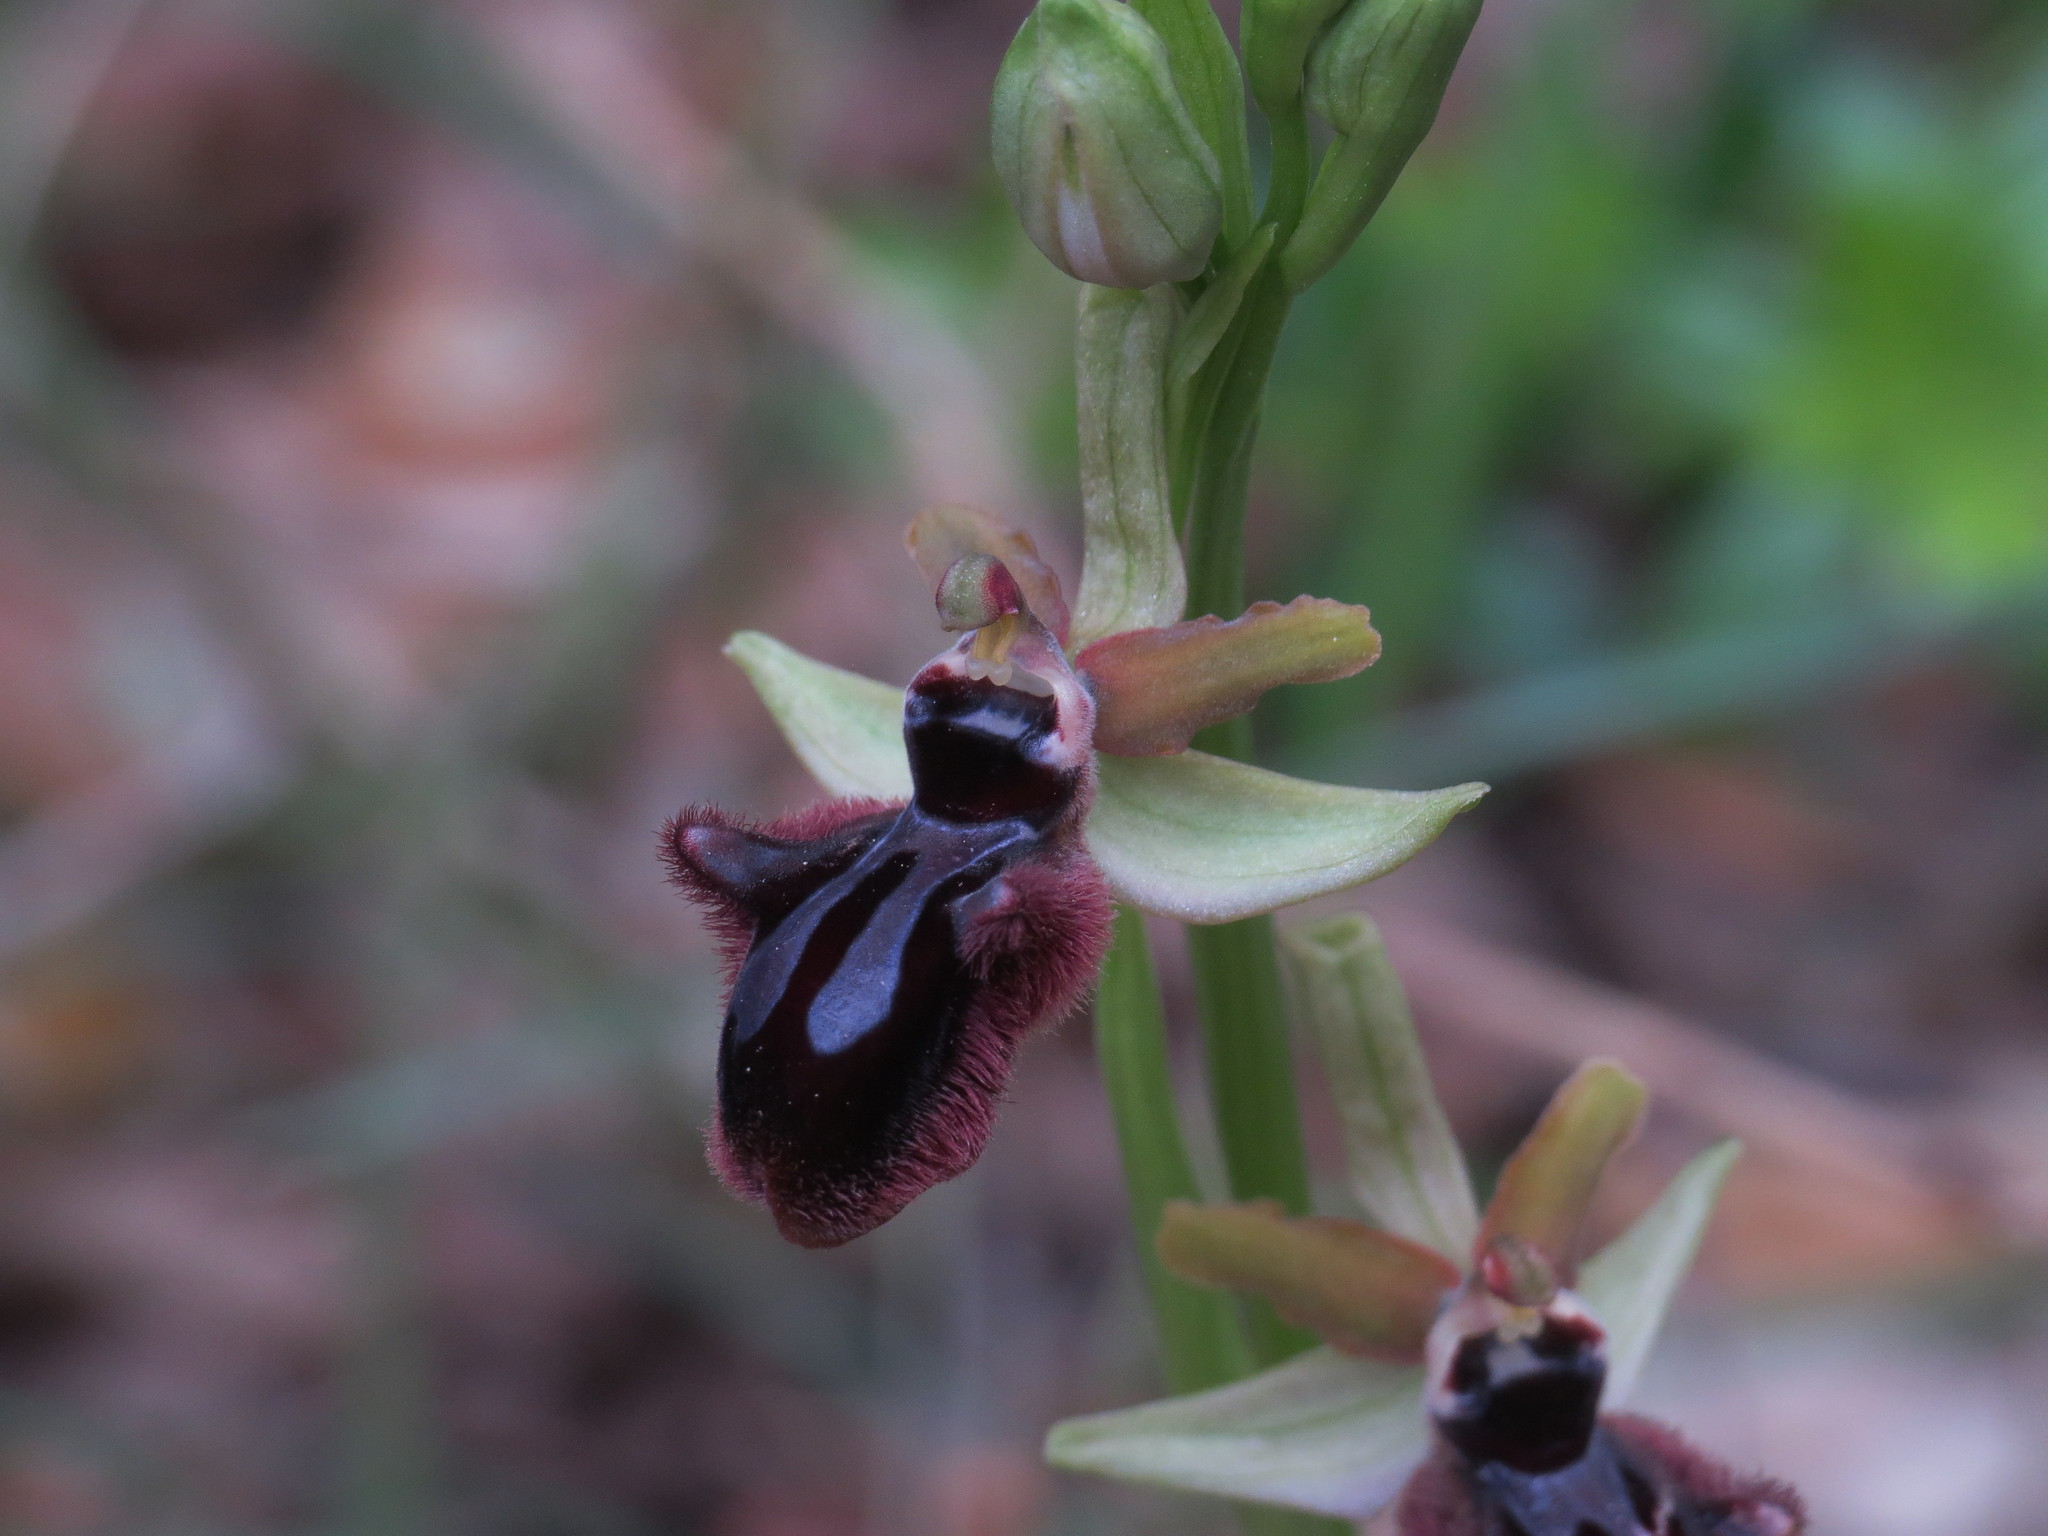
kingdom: Plantae
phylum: Tracheophyta
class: Liliopsida
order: Asparagales
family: Orchidaceae
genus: Ophrys
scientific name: Ophrys sphegodes
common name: Early spider-orchid
